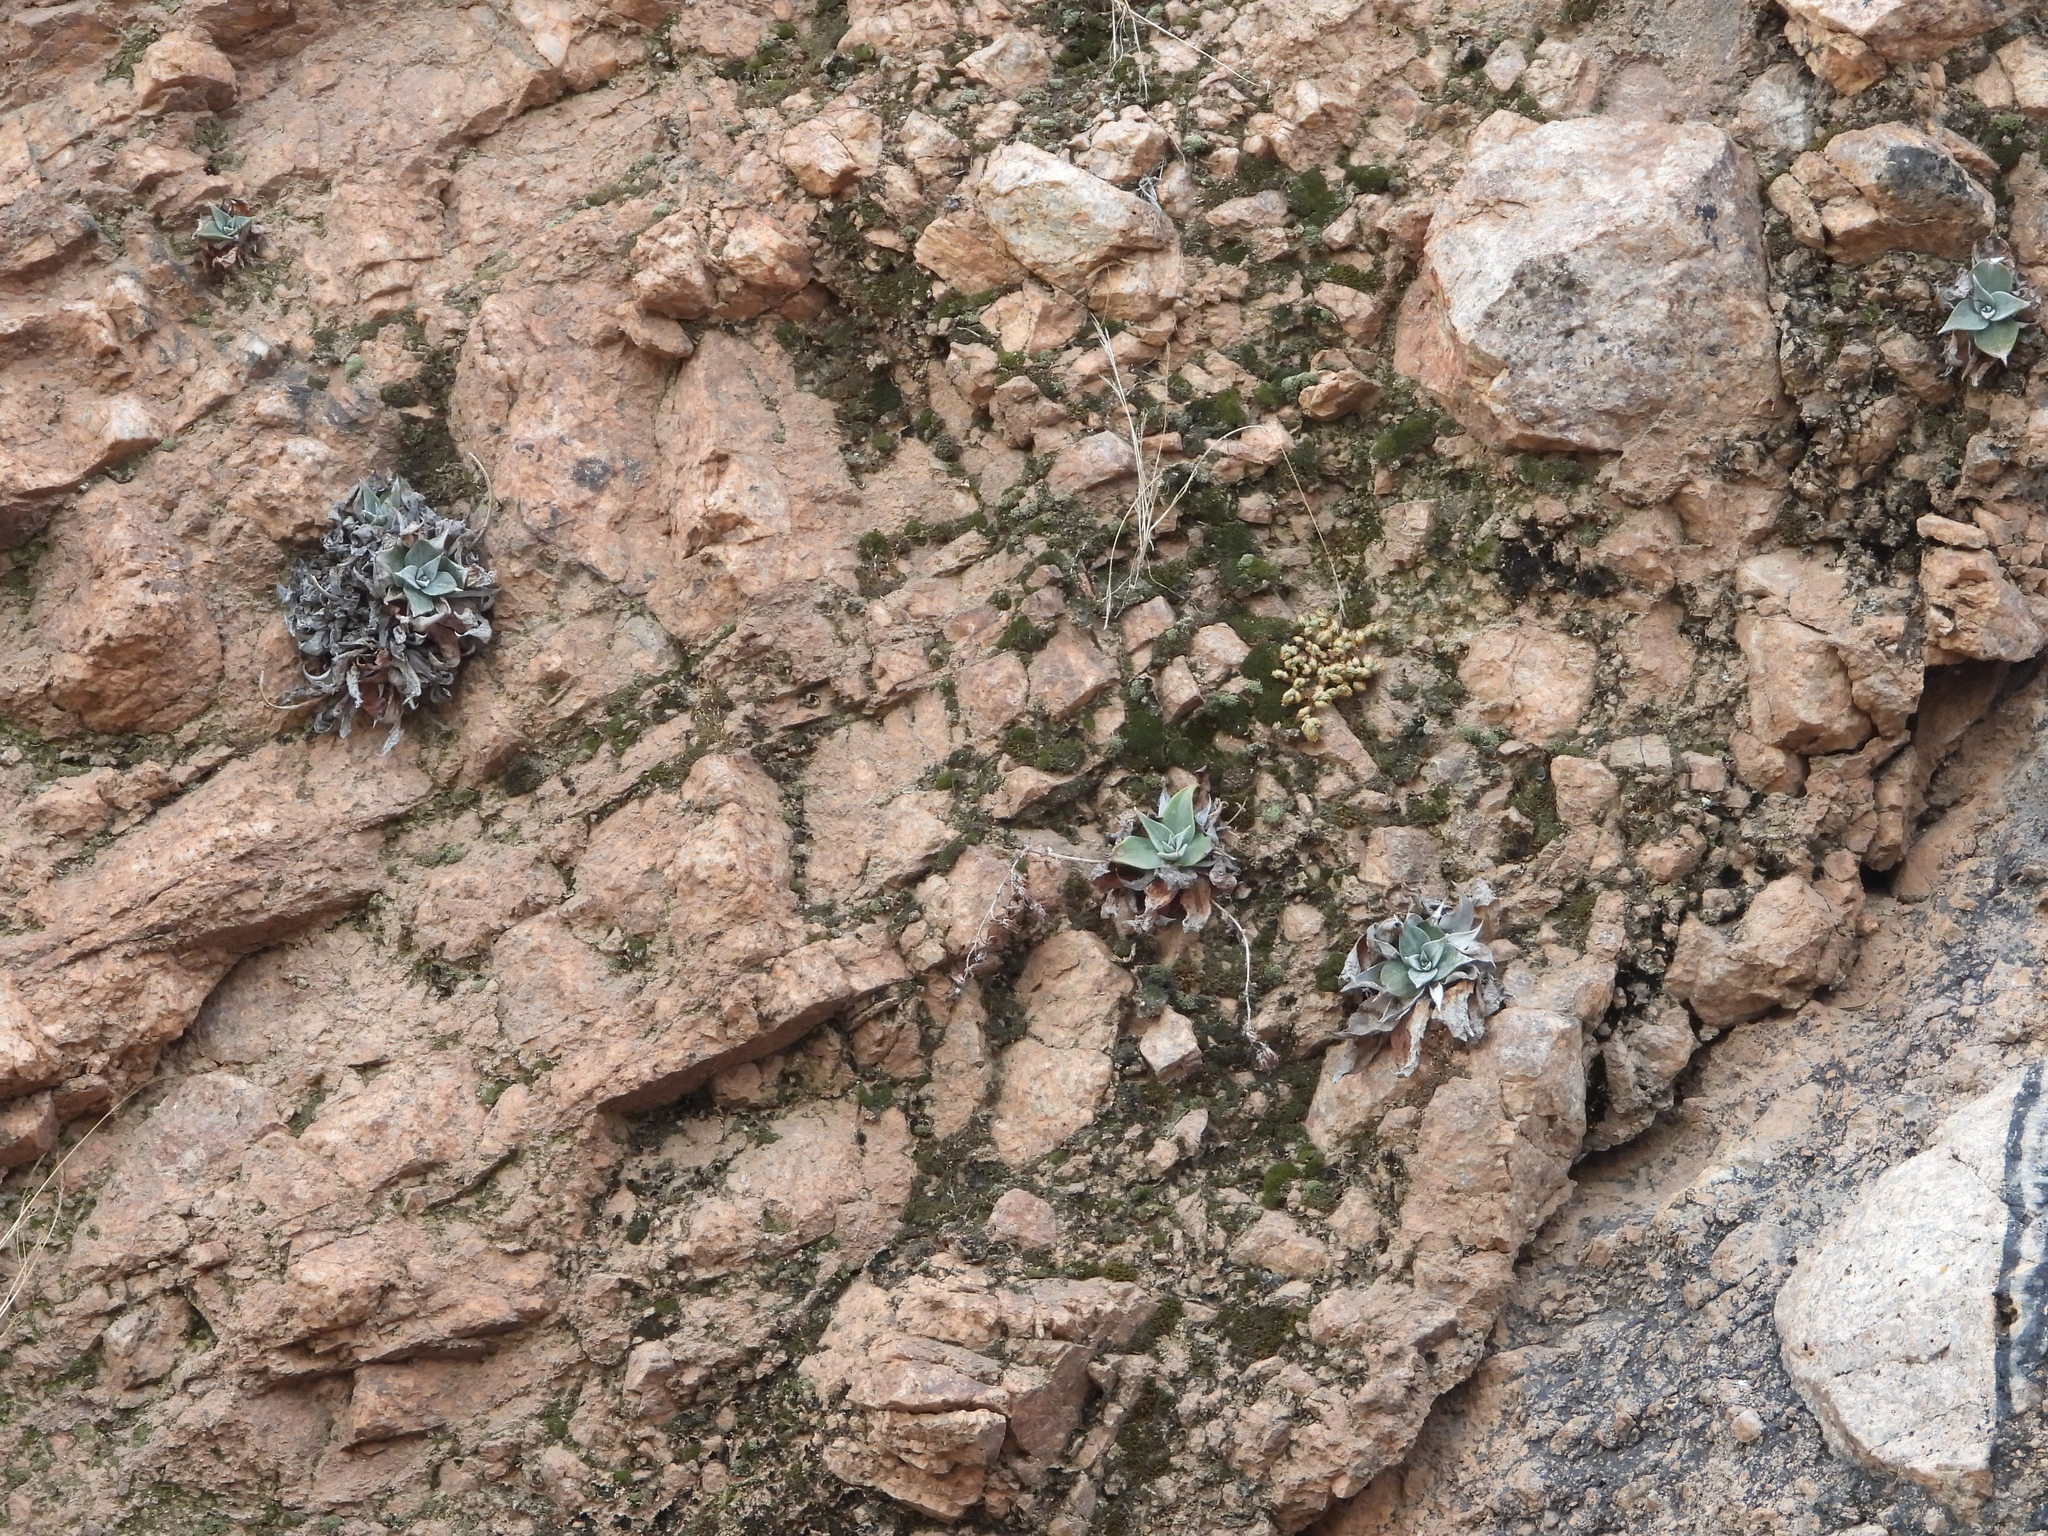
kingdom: Plantae
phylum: Tracheophyta
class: Magnoliopsida
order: Saxifragales
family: Crassulaceae
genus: Dudleya
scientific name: Dudleya arizonica
